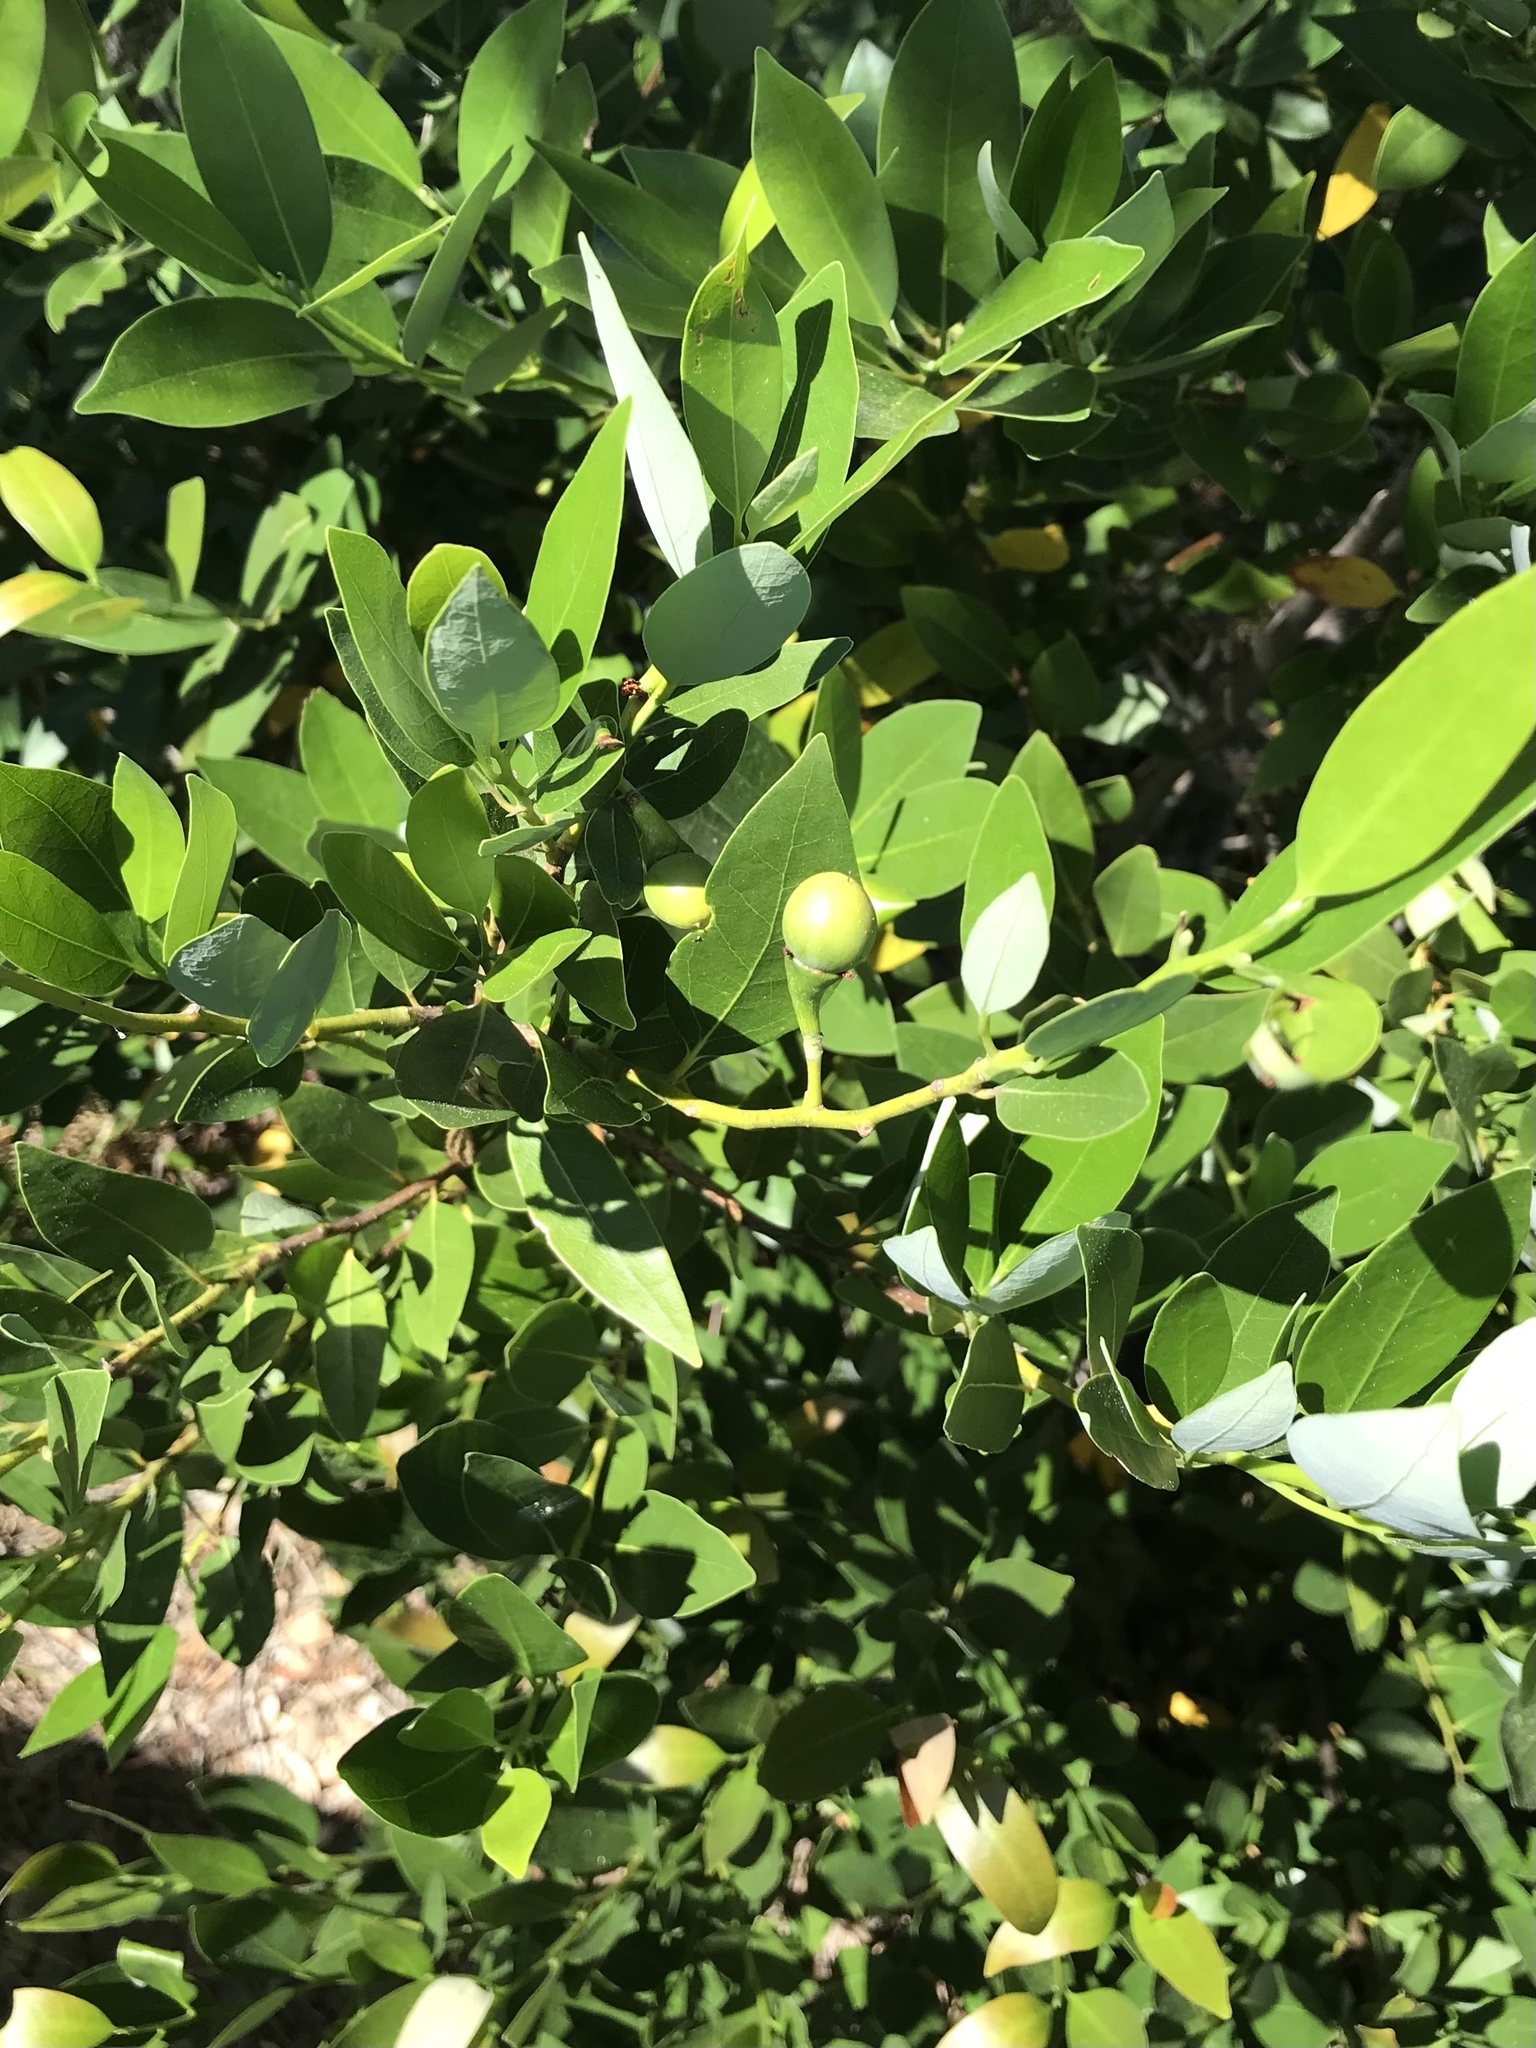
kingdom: Plantae
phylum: Tracheophyta
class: Magnoliopsida
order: Laurales
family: Lauraceae
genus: Umbellularia
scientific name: Umbellularia californica
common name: California bay
